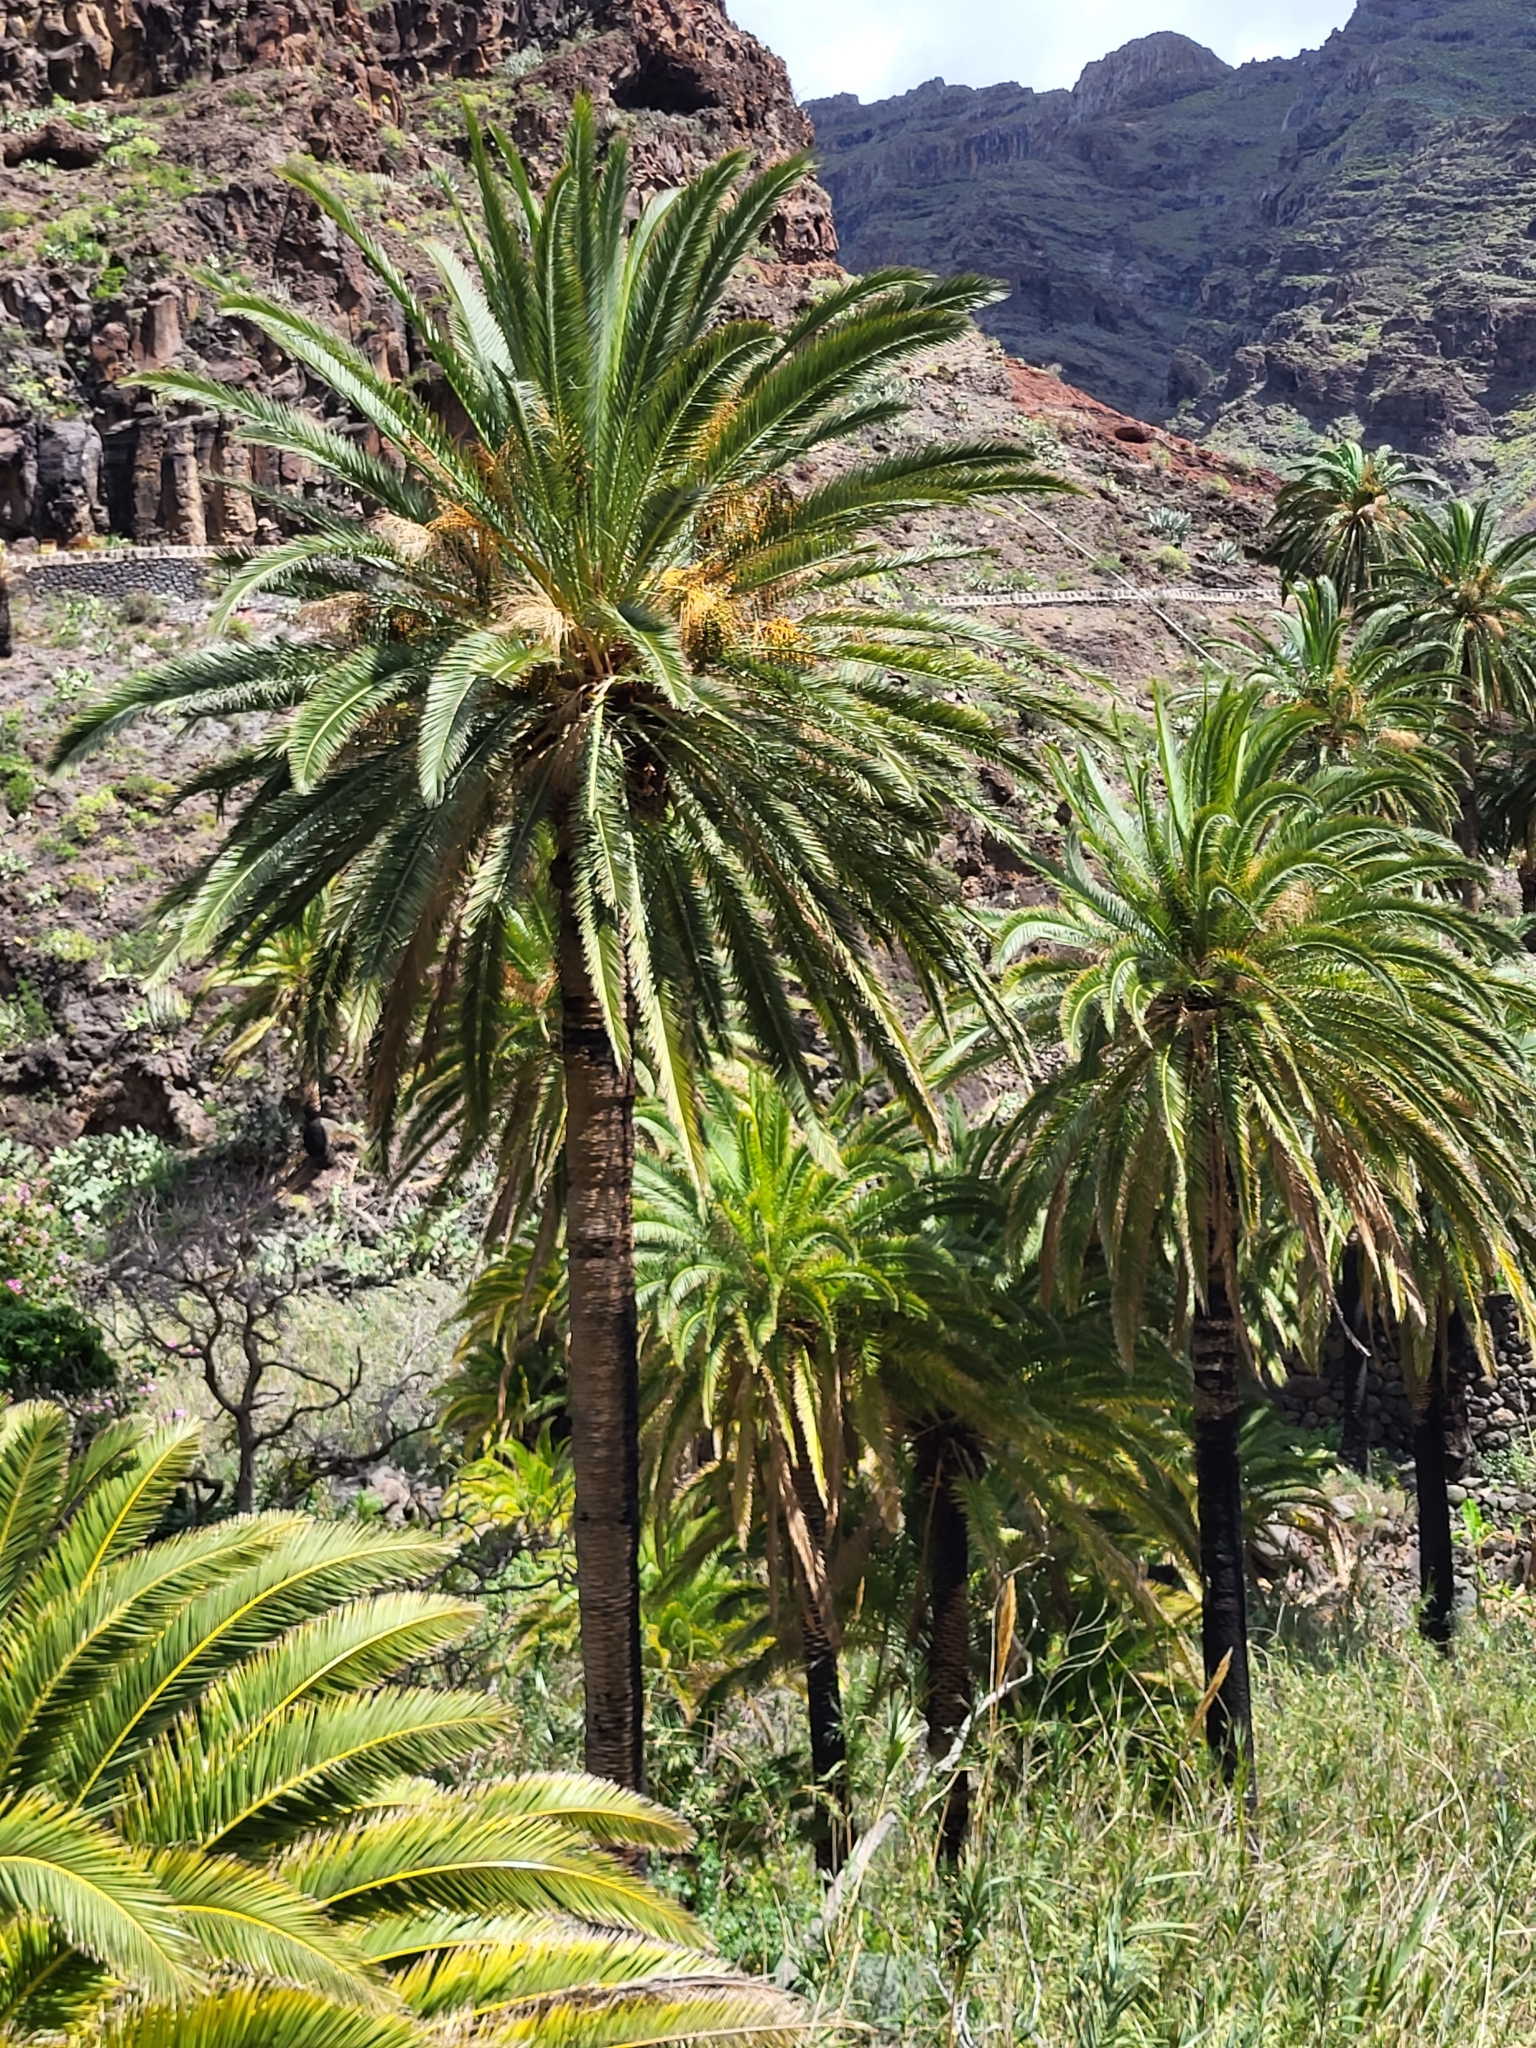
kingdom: Plantae
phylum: Tracheophyta
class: Liliopsida
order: Arecales
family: Arecaceae
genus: Phoenix
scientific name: Phoenix canariensis
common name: Canary island date palm
